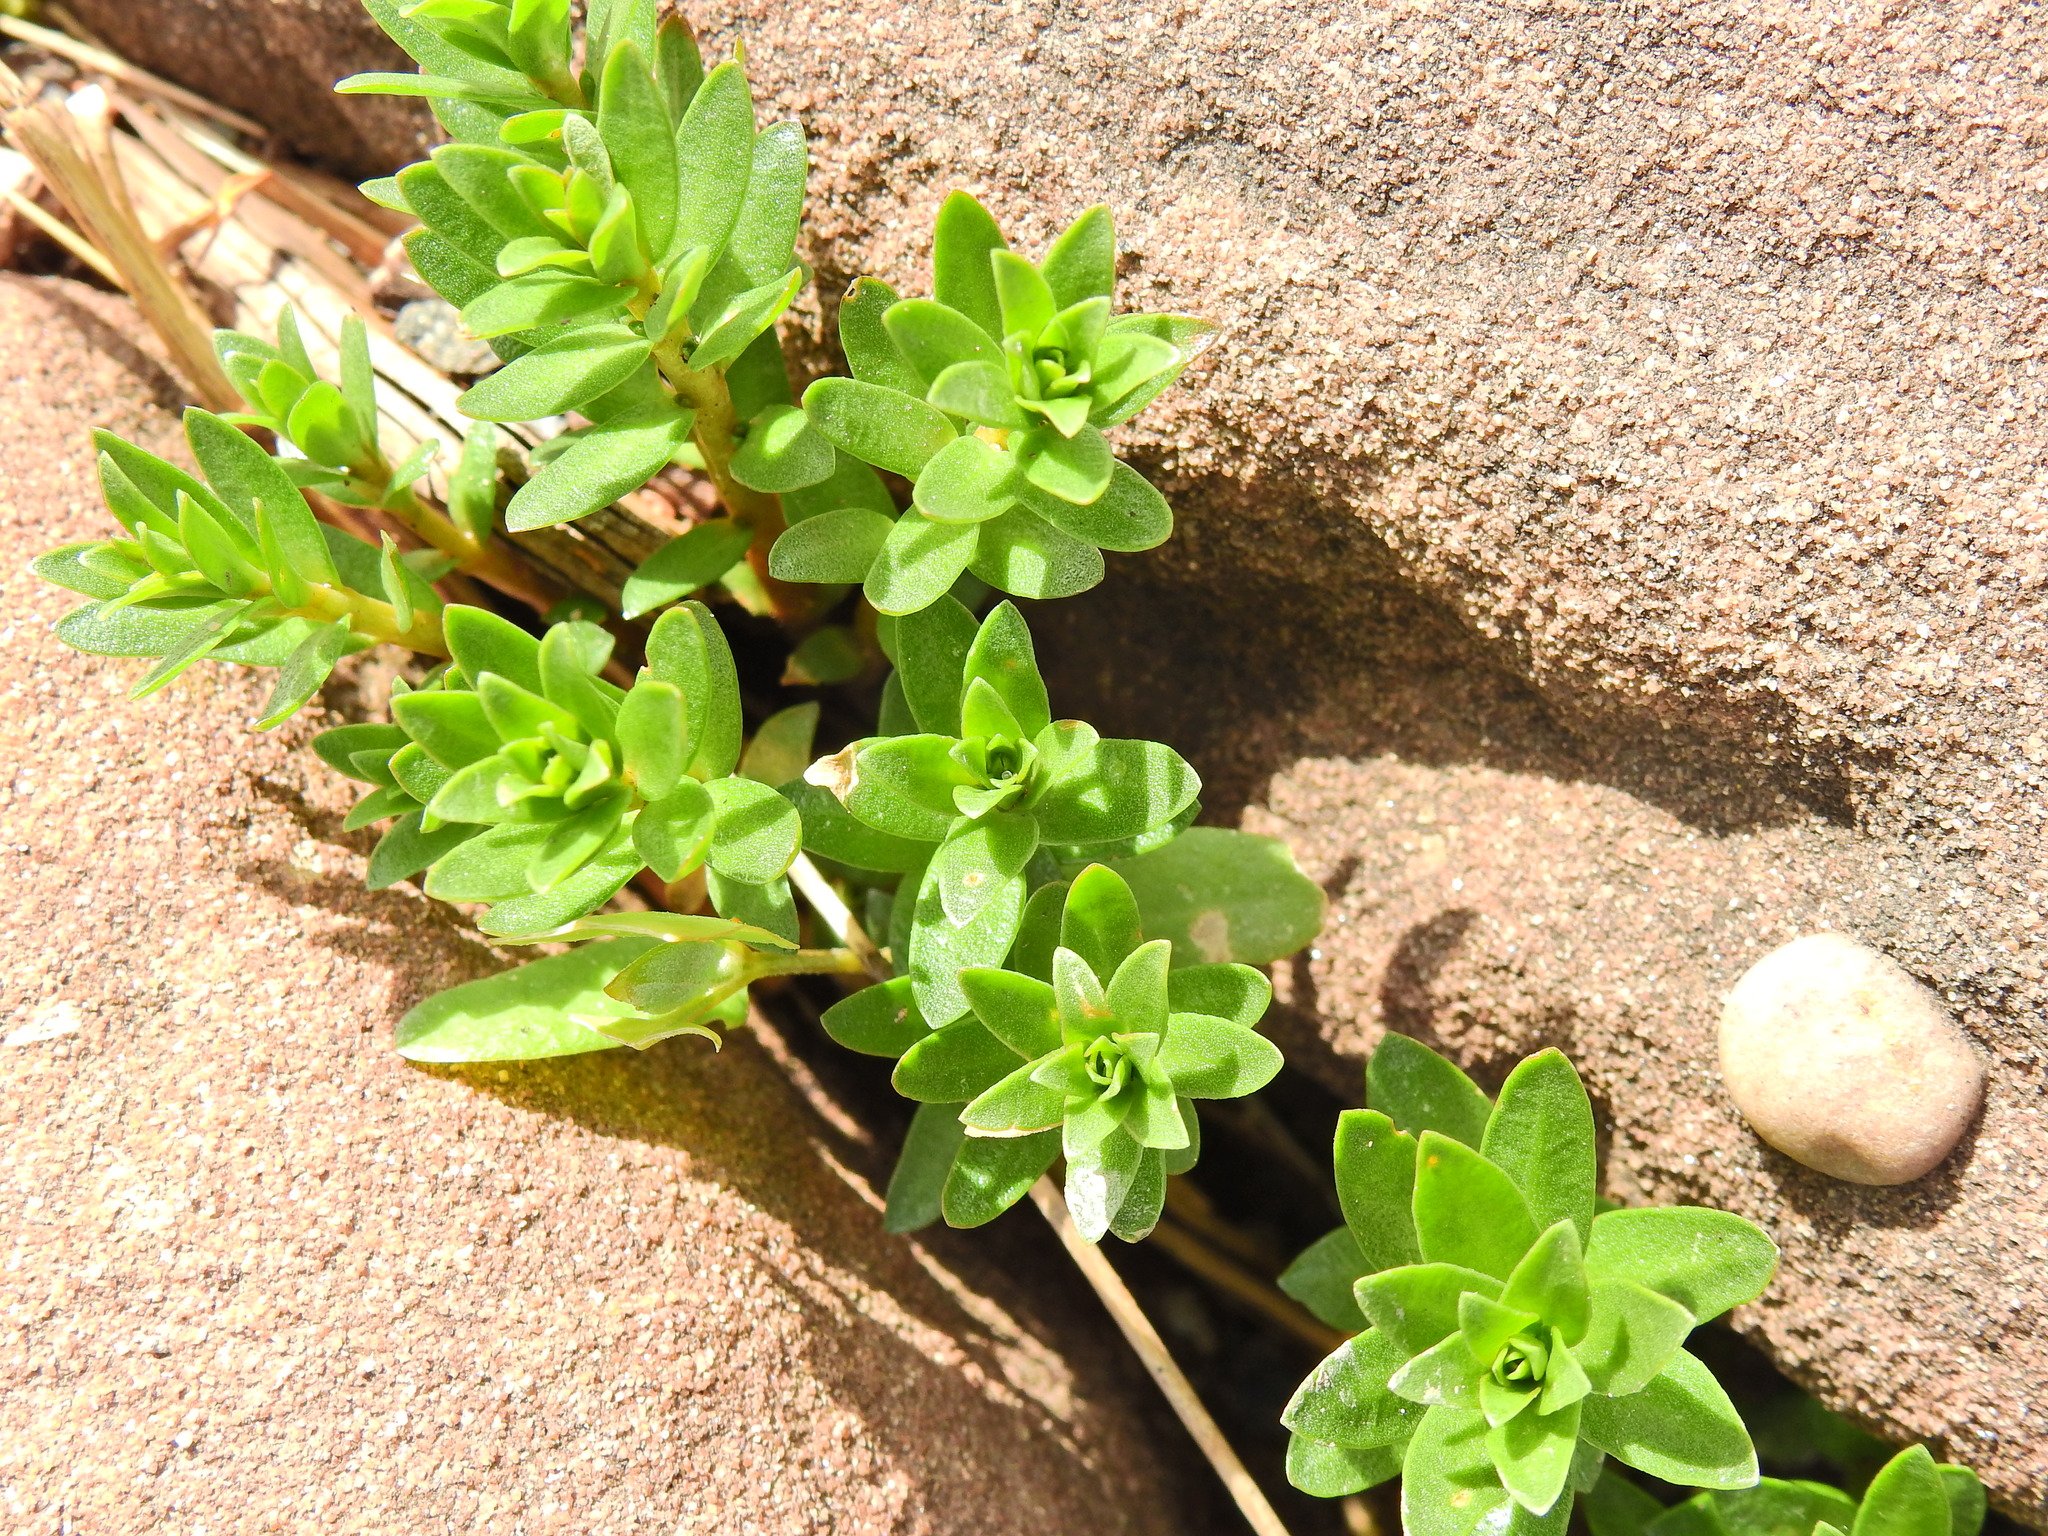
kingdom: Plantae
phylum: Tracheophyta
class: Magnoliopsida
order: Ericales
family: Primulaceae
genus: Lysimachia
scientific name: Lysimachia maritima
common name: Sea milkwort
